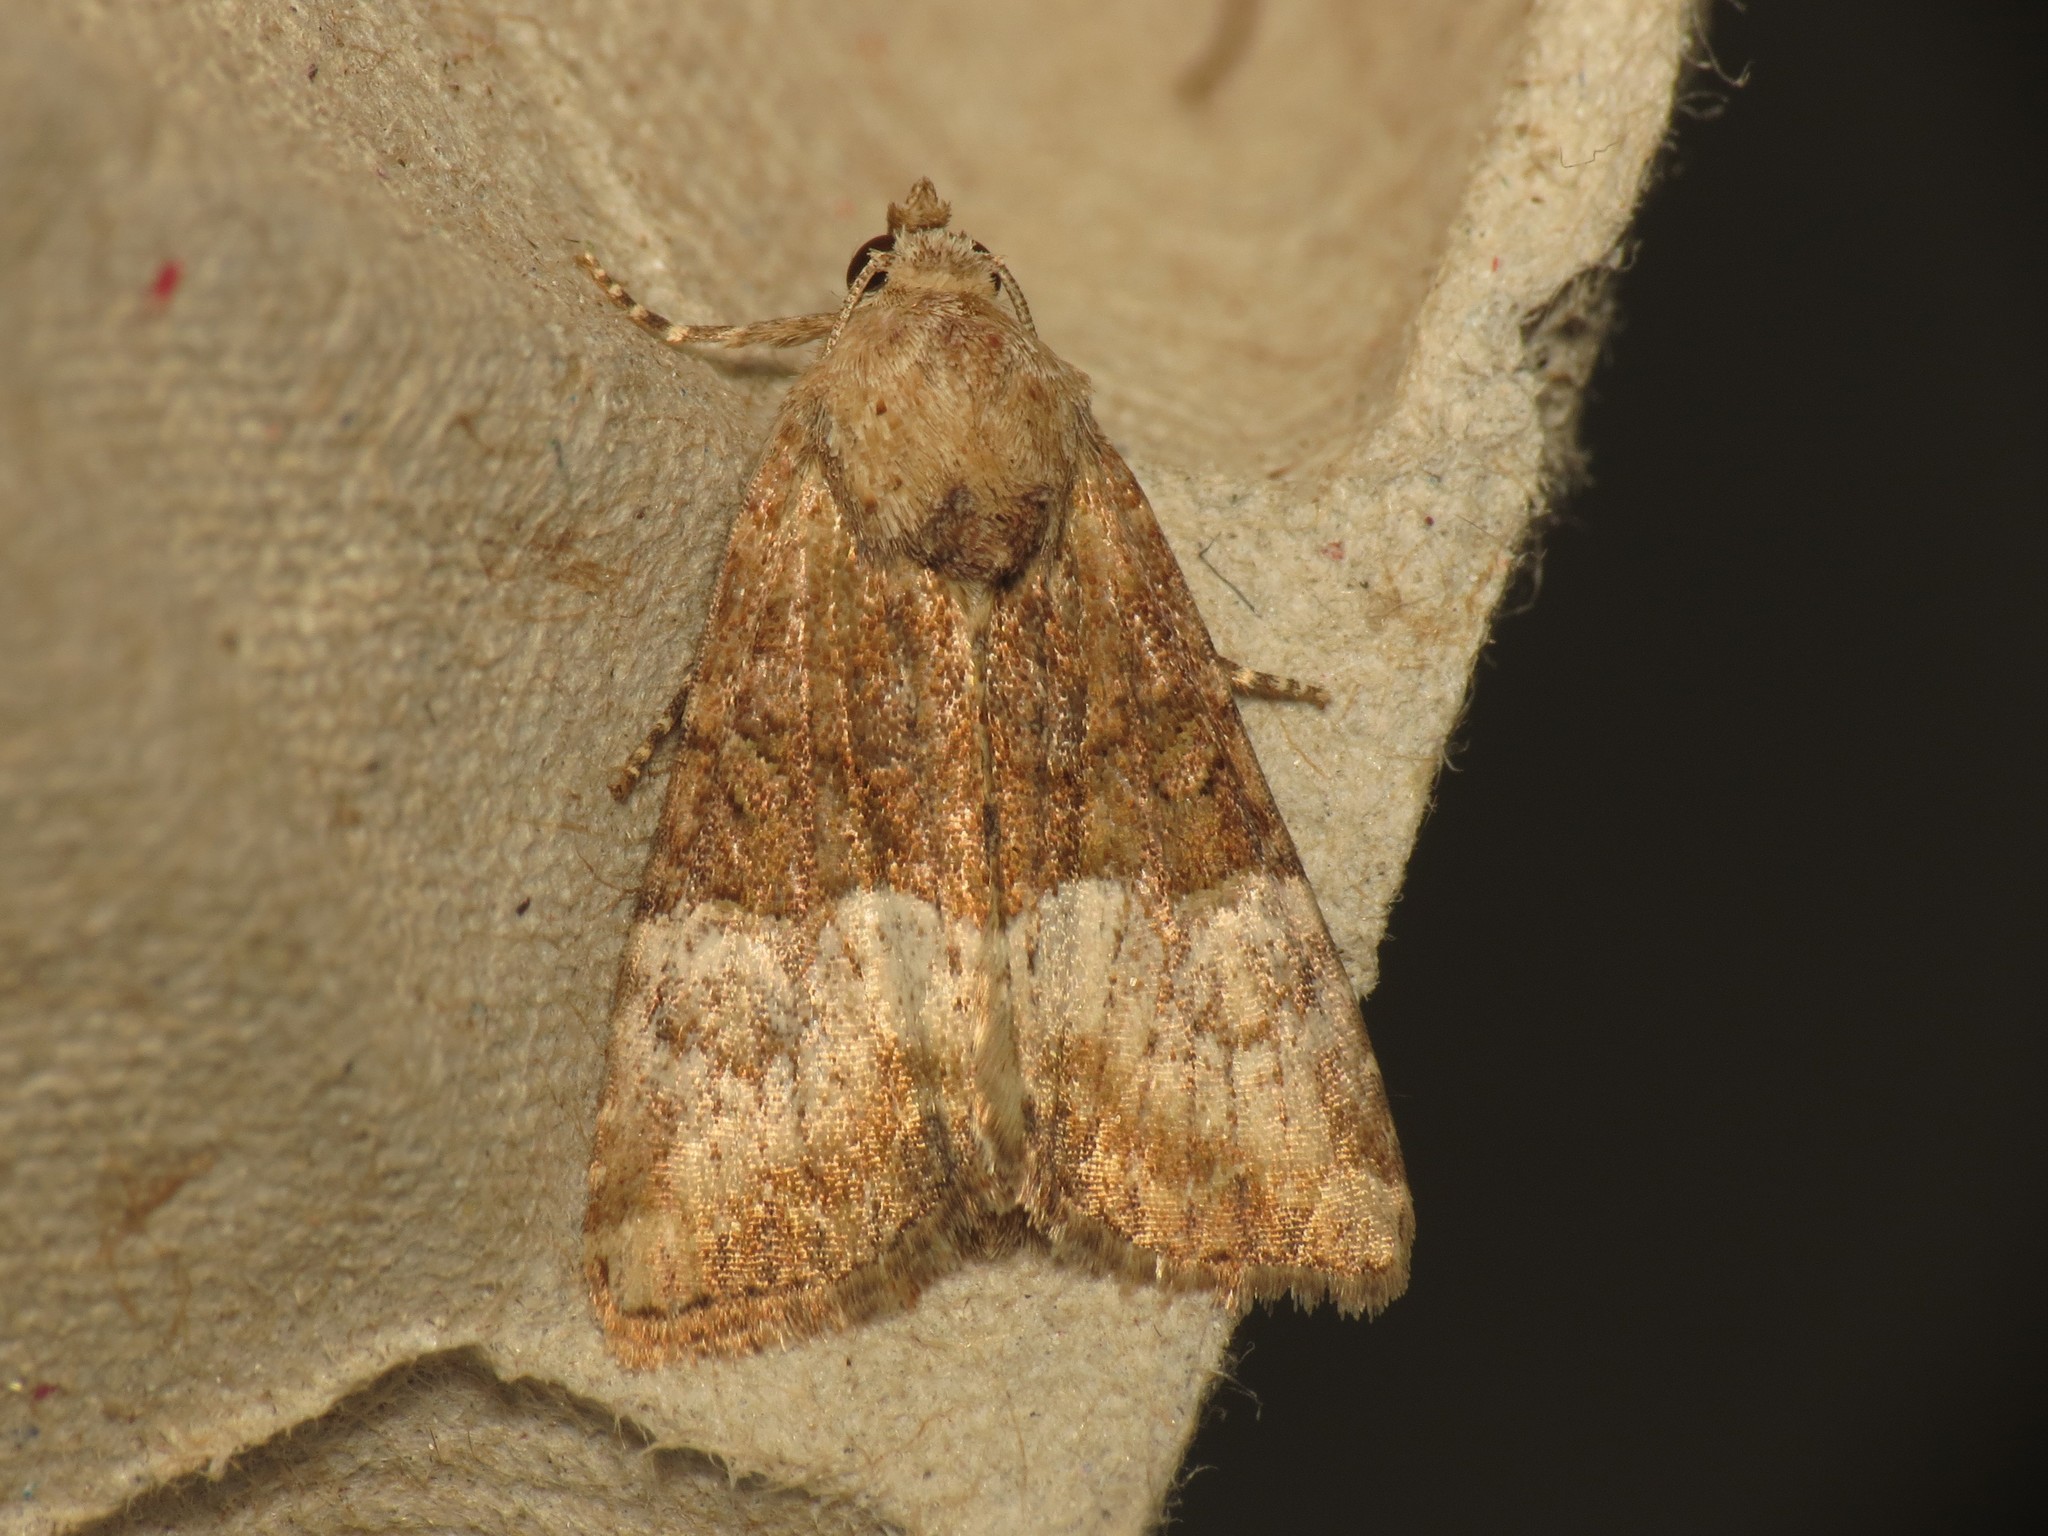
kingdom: Animalia
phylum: Arthropoda
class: Insecta
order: Lepidoptera
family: Noctuidae
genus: Mesoligia
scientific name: Mesoligia furuncula
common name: Cloaked minor
